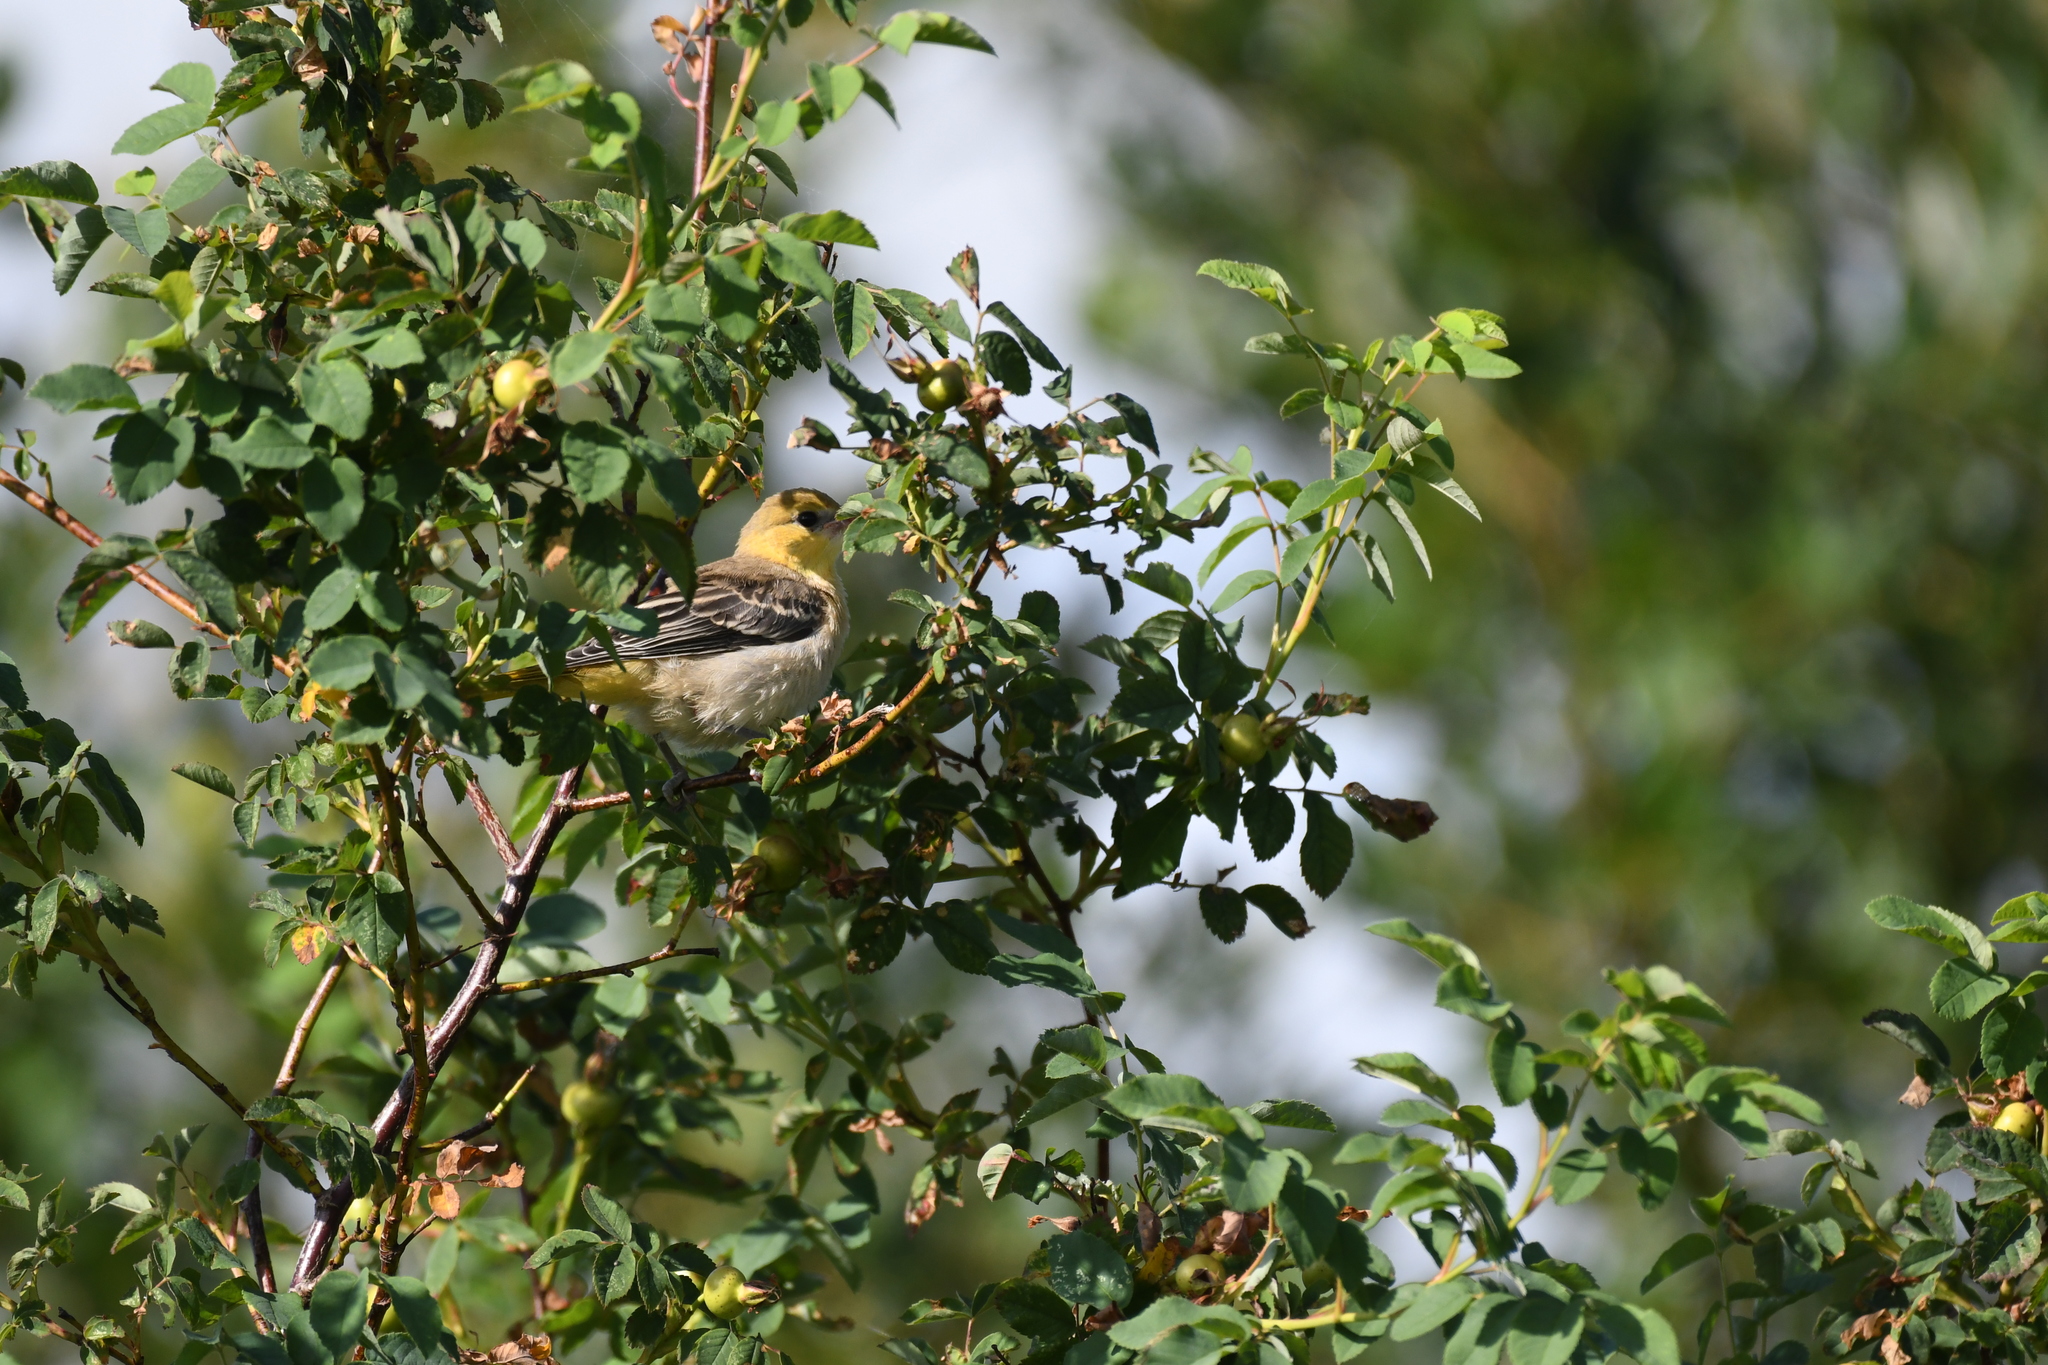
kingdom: Animalia
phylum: Chordata
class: Aves
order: Passeriformes
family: Icteridae
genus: Icterus
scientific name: Icterus bullockii
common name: Bullock's oriole
